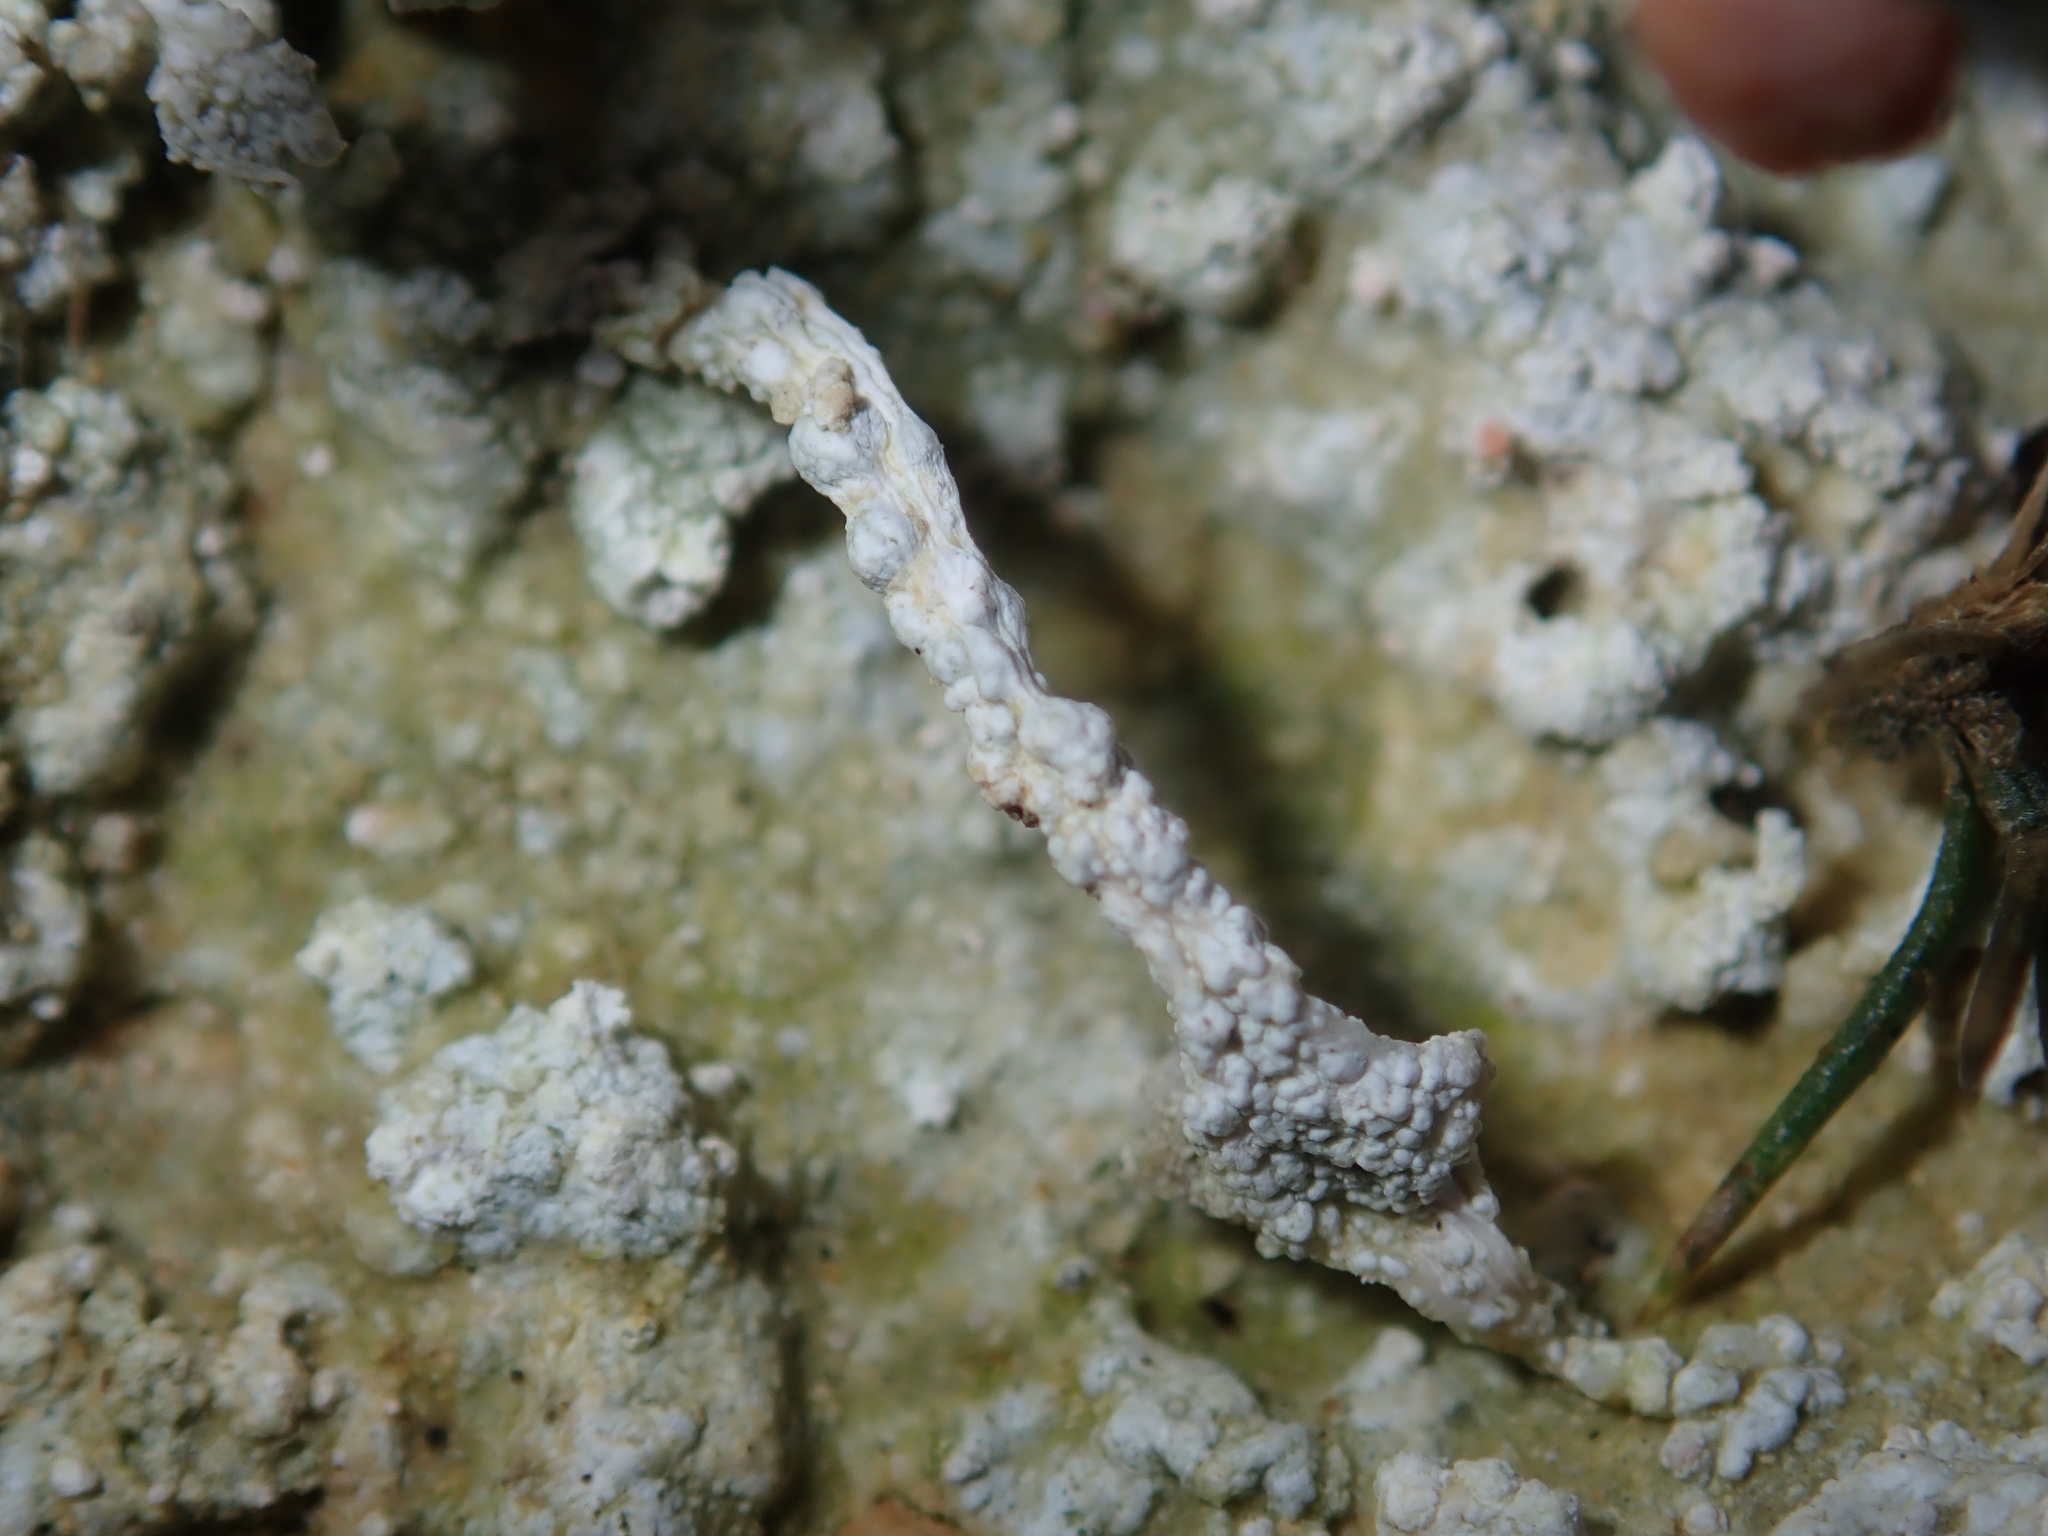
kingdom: Fungi
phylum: Ascomycota
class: Lecanoromycetes
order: Pertusariales
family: Icmadophilaceae
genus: Dibaeis
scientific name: Dibaeis arcuata
